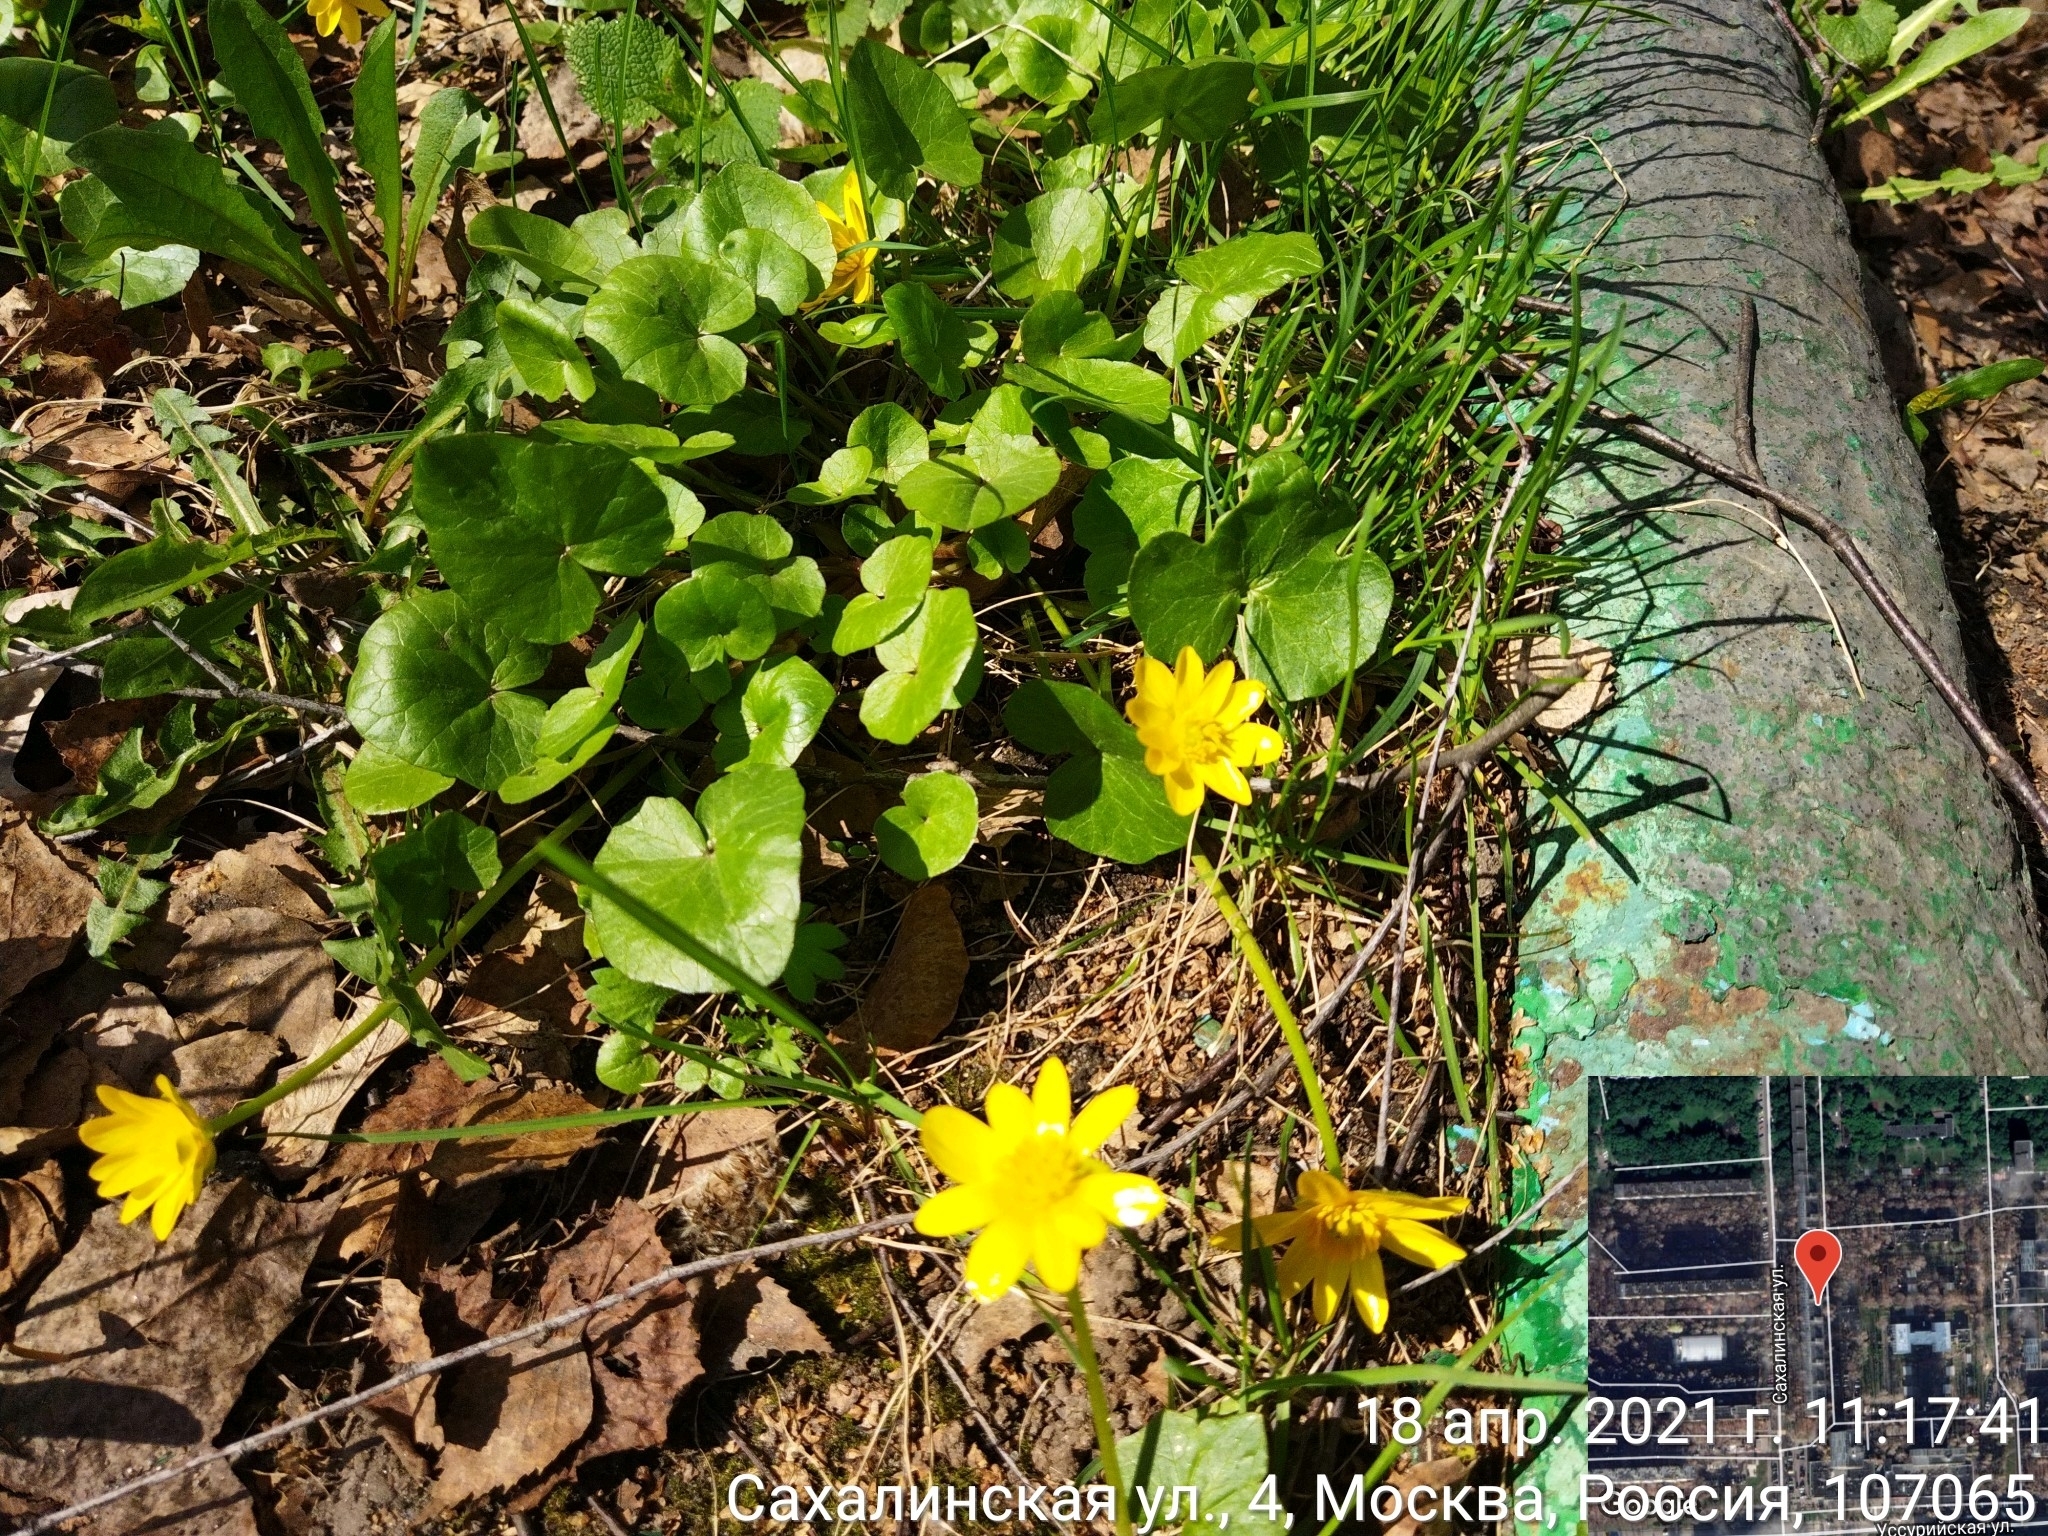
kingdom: Plantae
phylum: Tracheophyta
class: Magnoliopsida
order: Ranunculales
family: Ranunculaceae
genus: Ficaria
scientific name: Ficaria verna
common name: Lesser celandine
